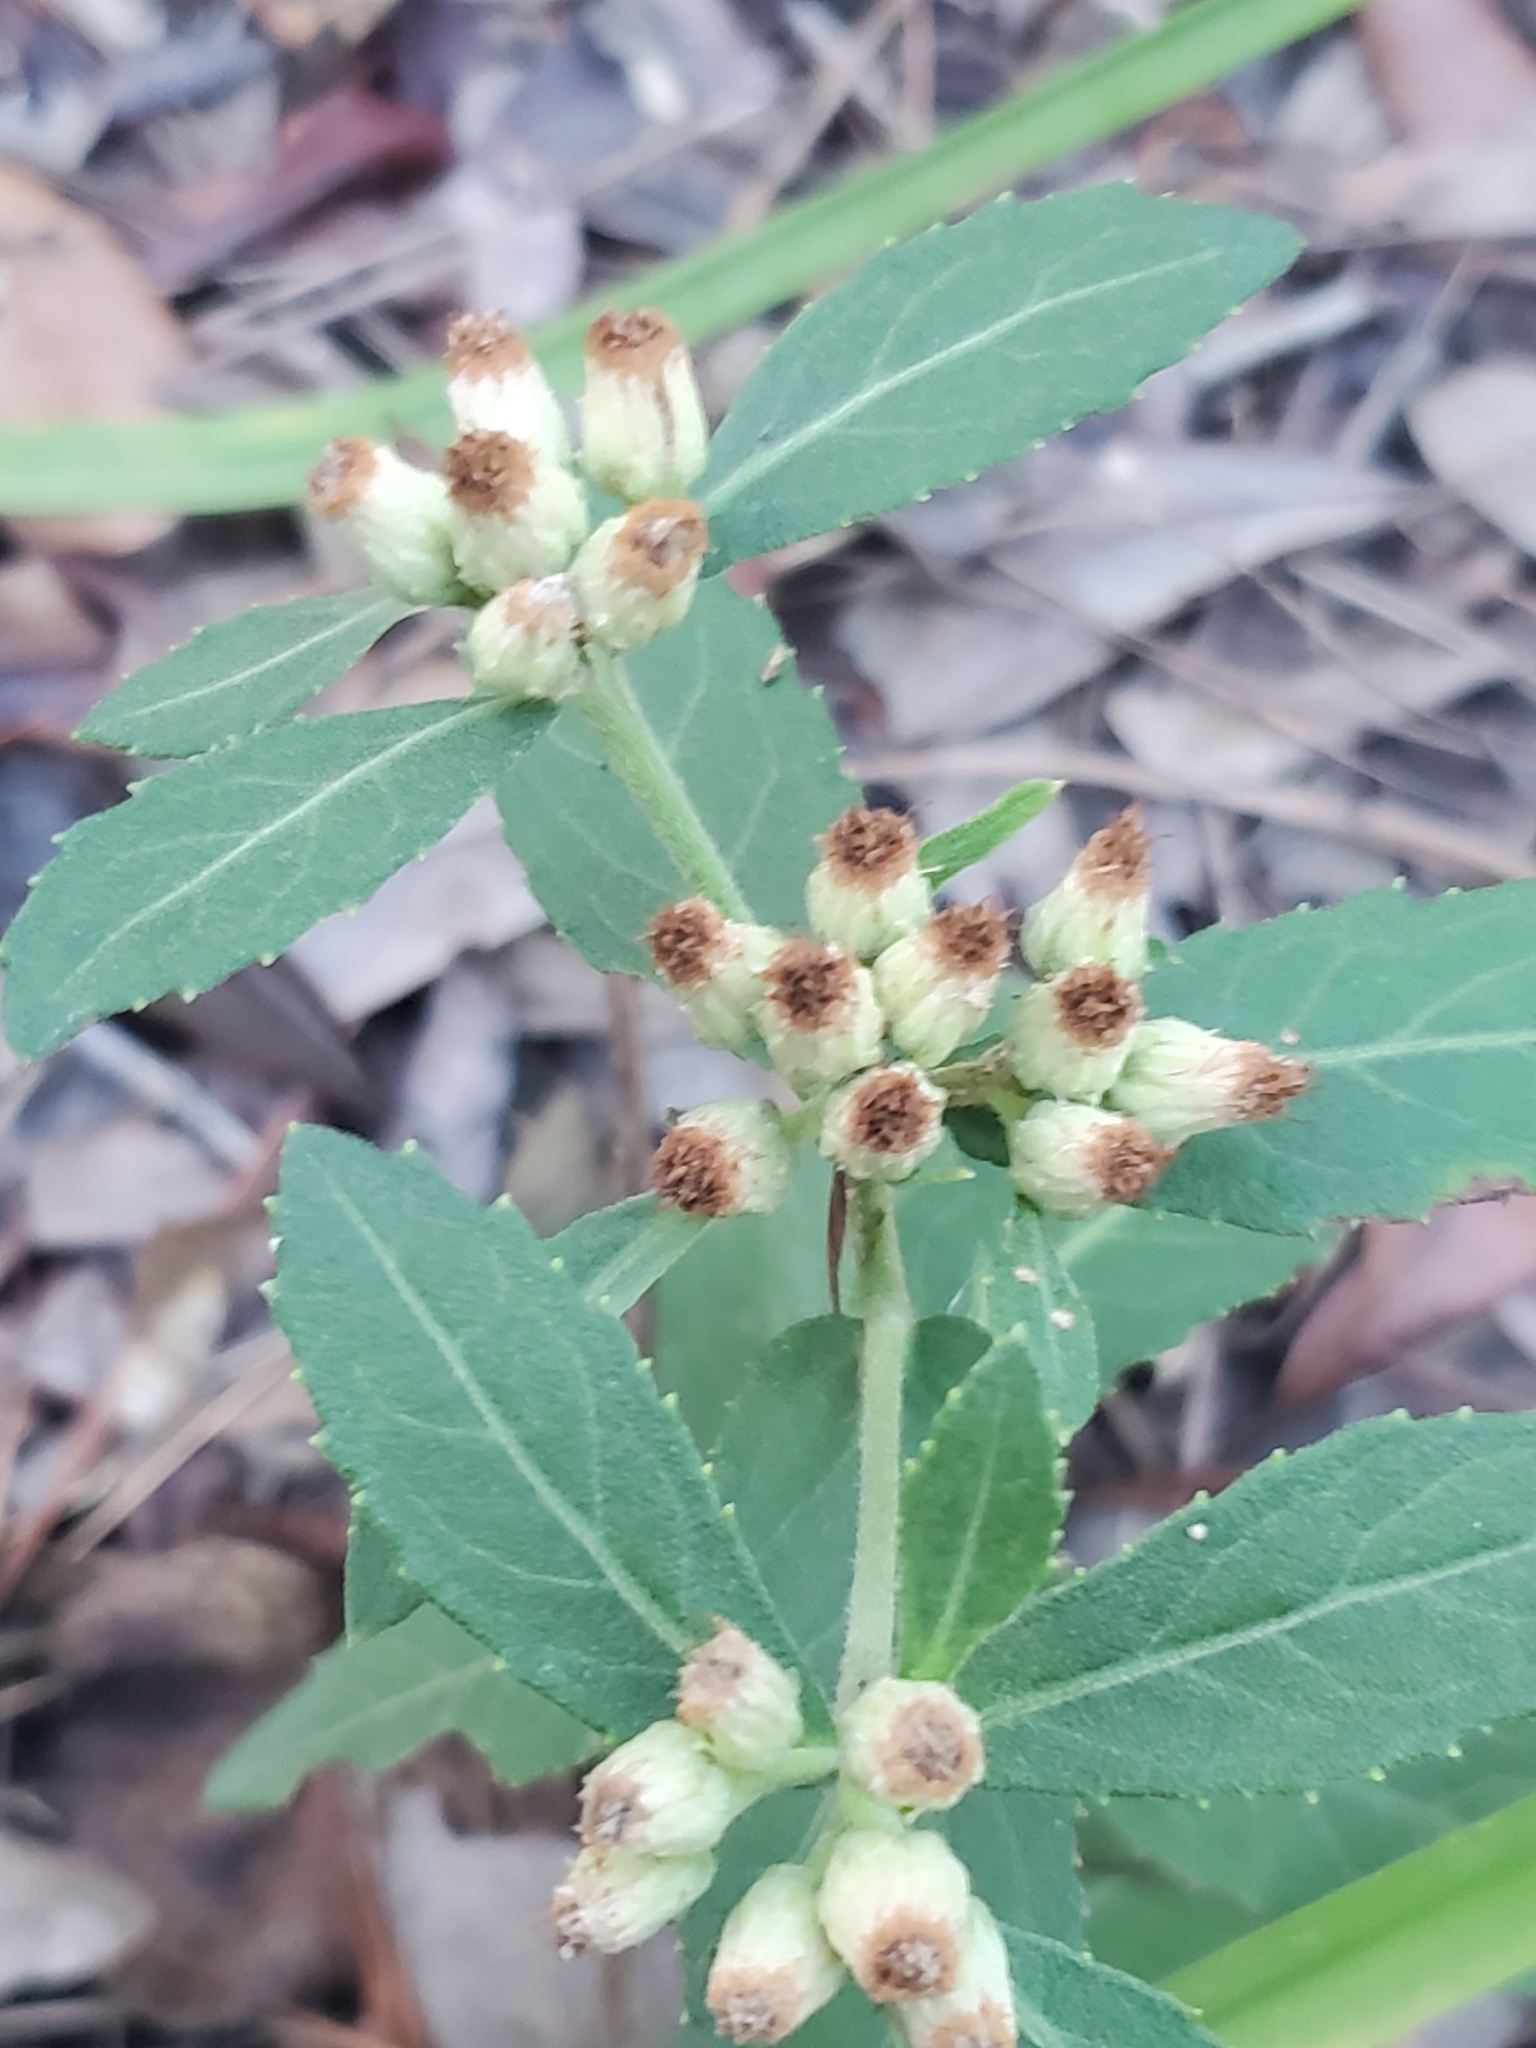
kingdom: Plantae
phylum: Tracheophyta
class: Magnoliopsida
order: Asterales
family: Asteraceae
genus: Pluchea
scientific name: Pluchea foetida
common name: Stinking camphorweed
